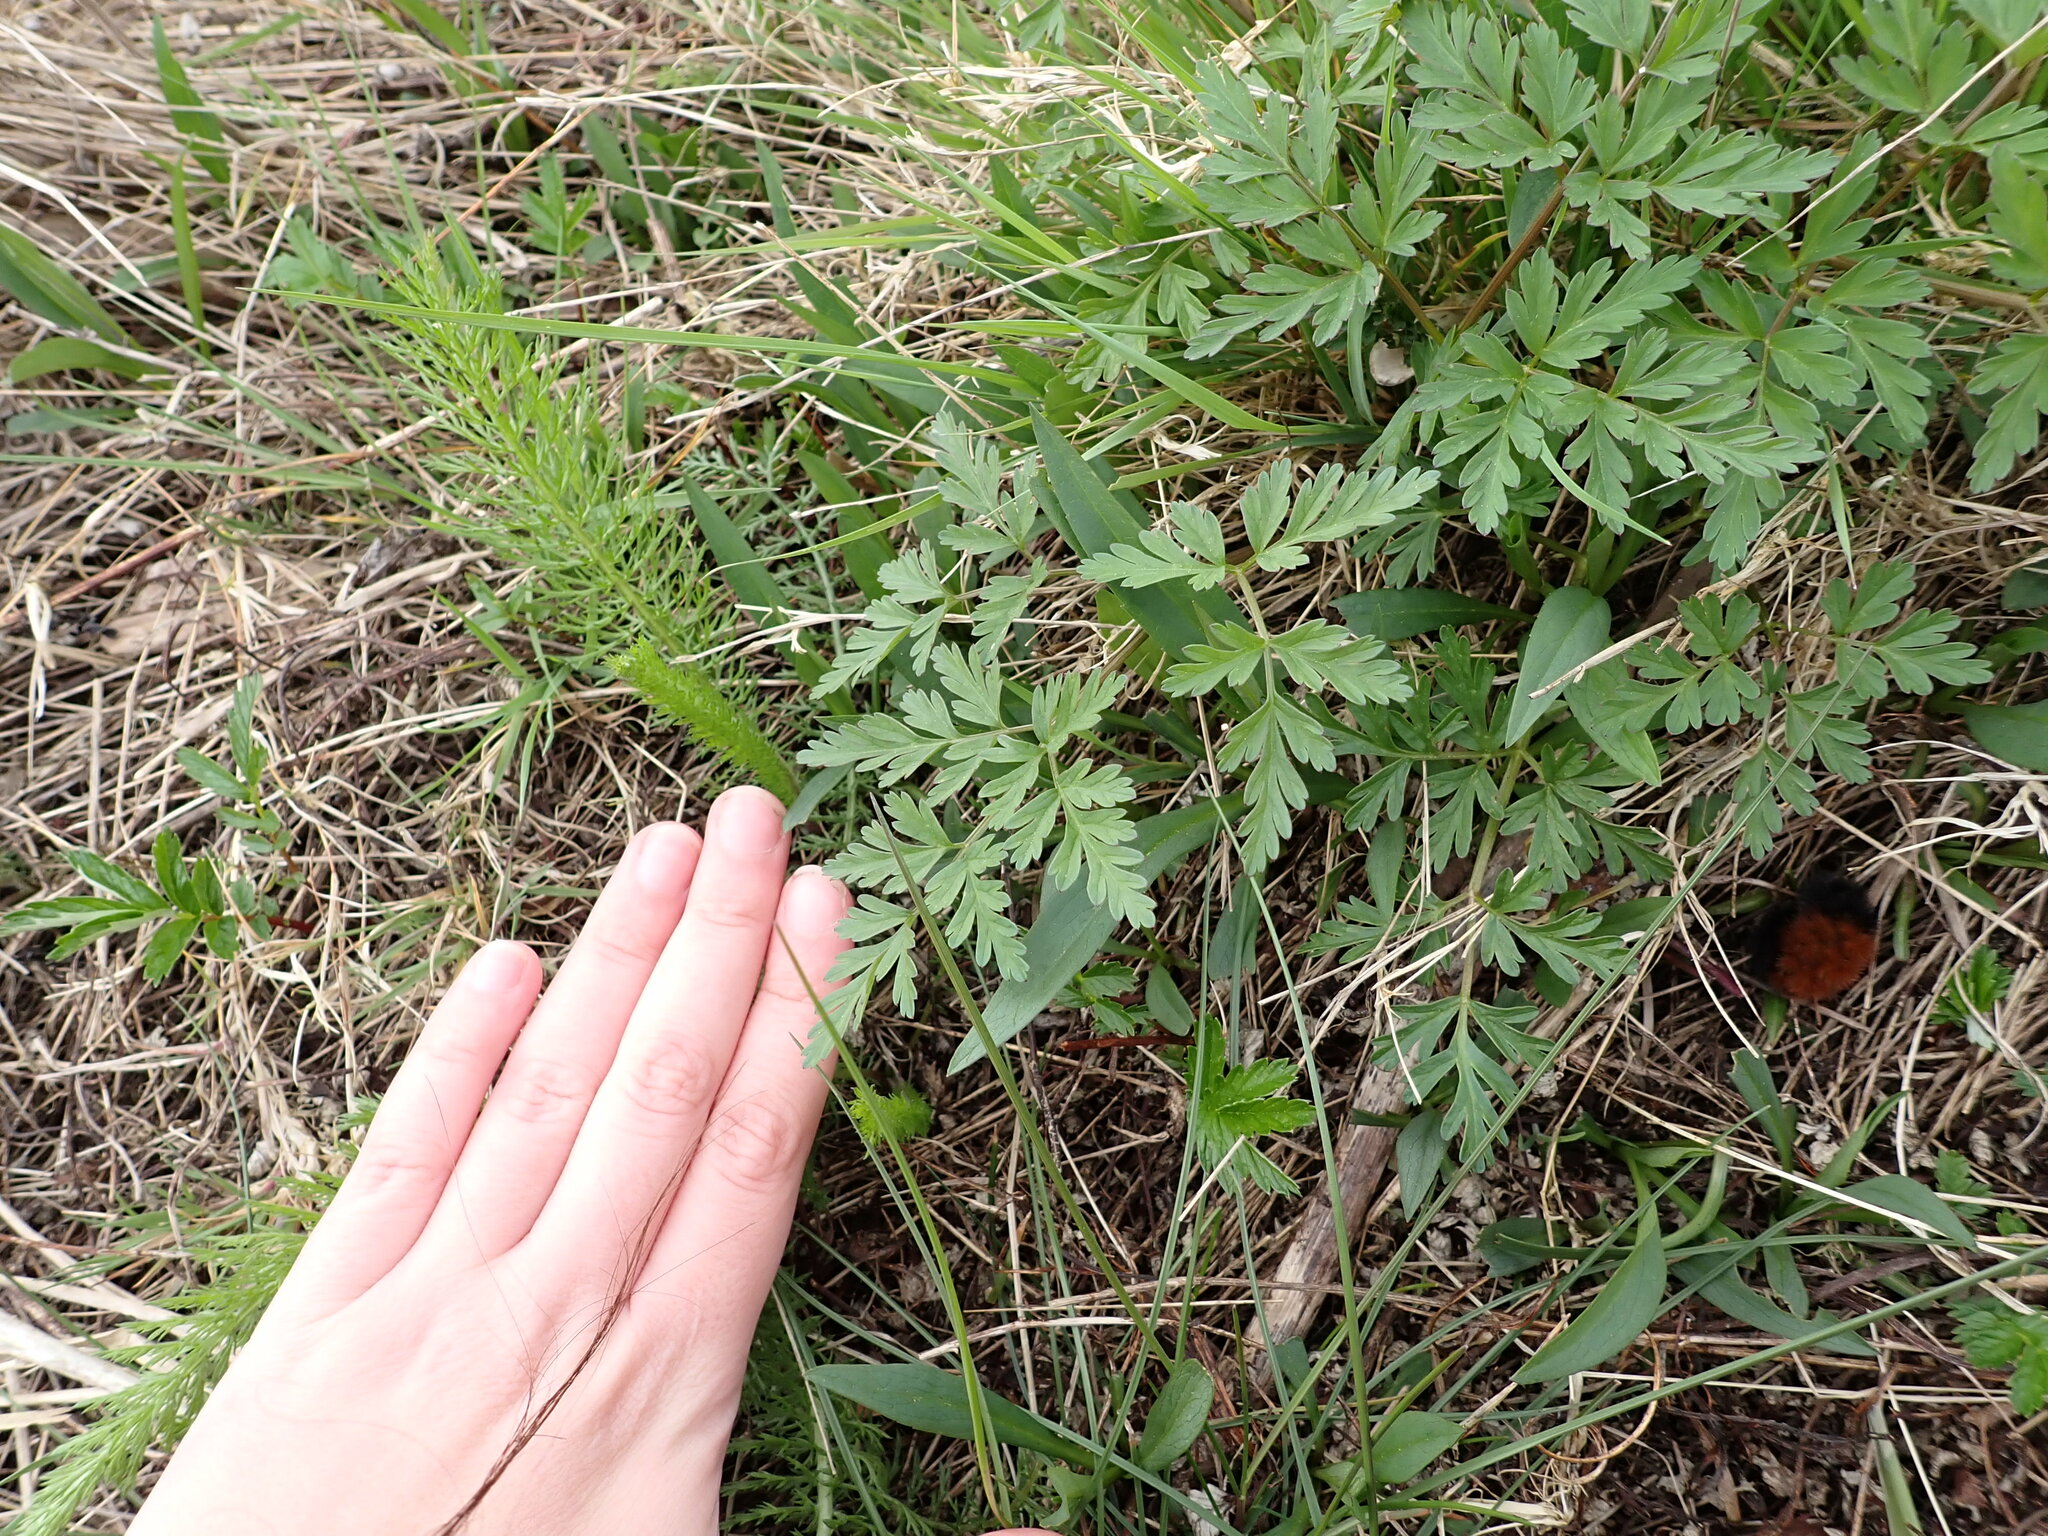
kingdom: Plantae
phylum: Tracheophyta
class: Magnoliopsida
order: Apiales
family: Apiaceae
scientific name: Apiaceae
